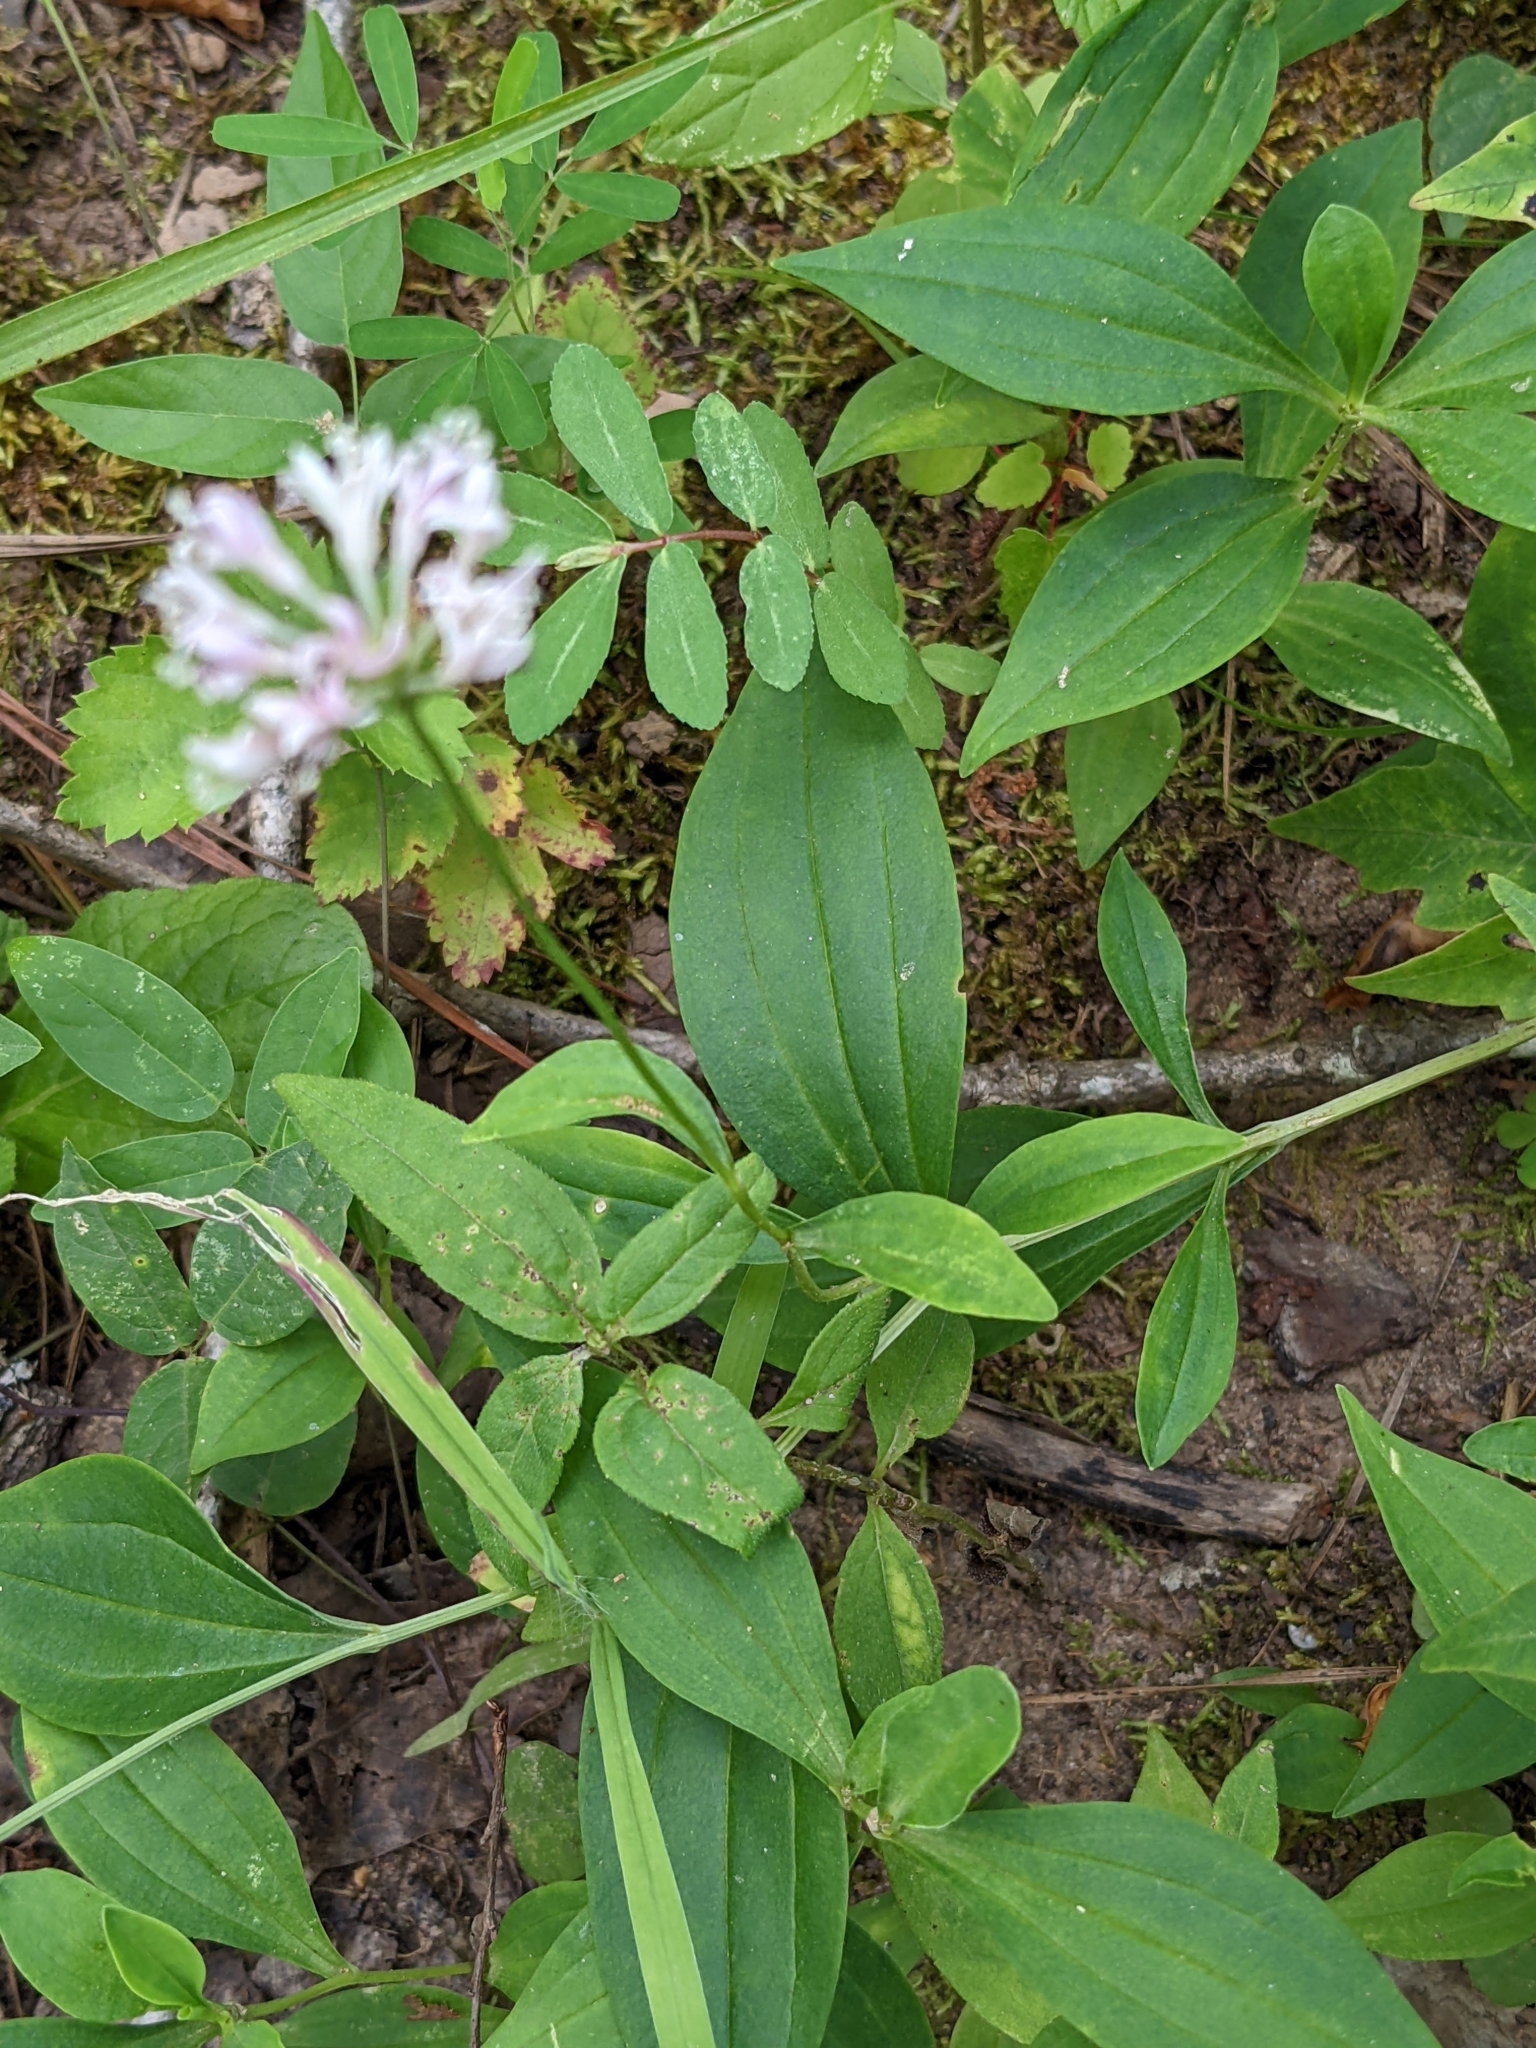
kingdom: Plantae
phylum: Tracheophyta
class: Magnoliopsida
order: Asterales
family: Asteraceae
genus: Marshallia
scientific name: Marshallia trinervia
